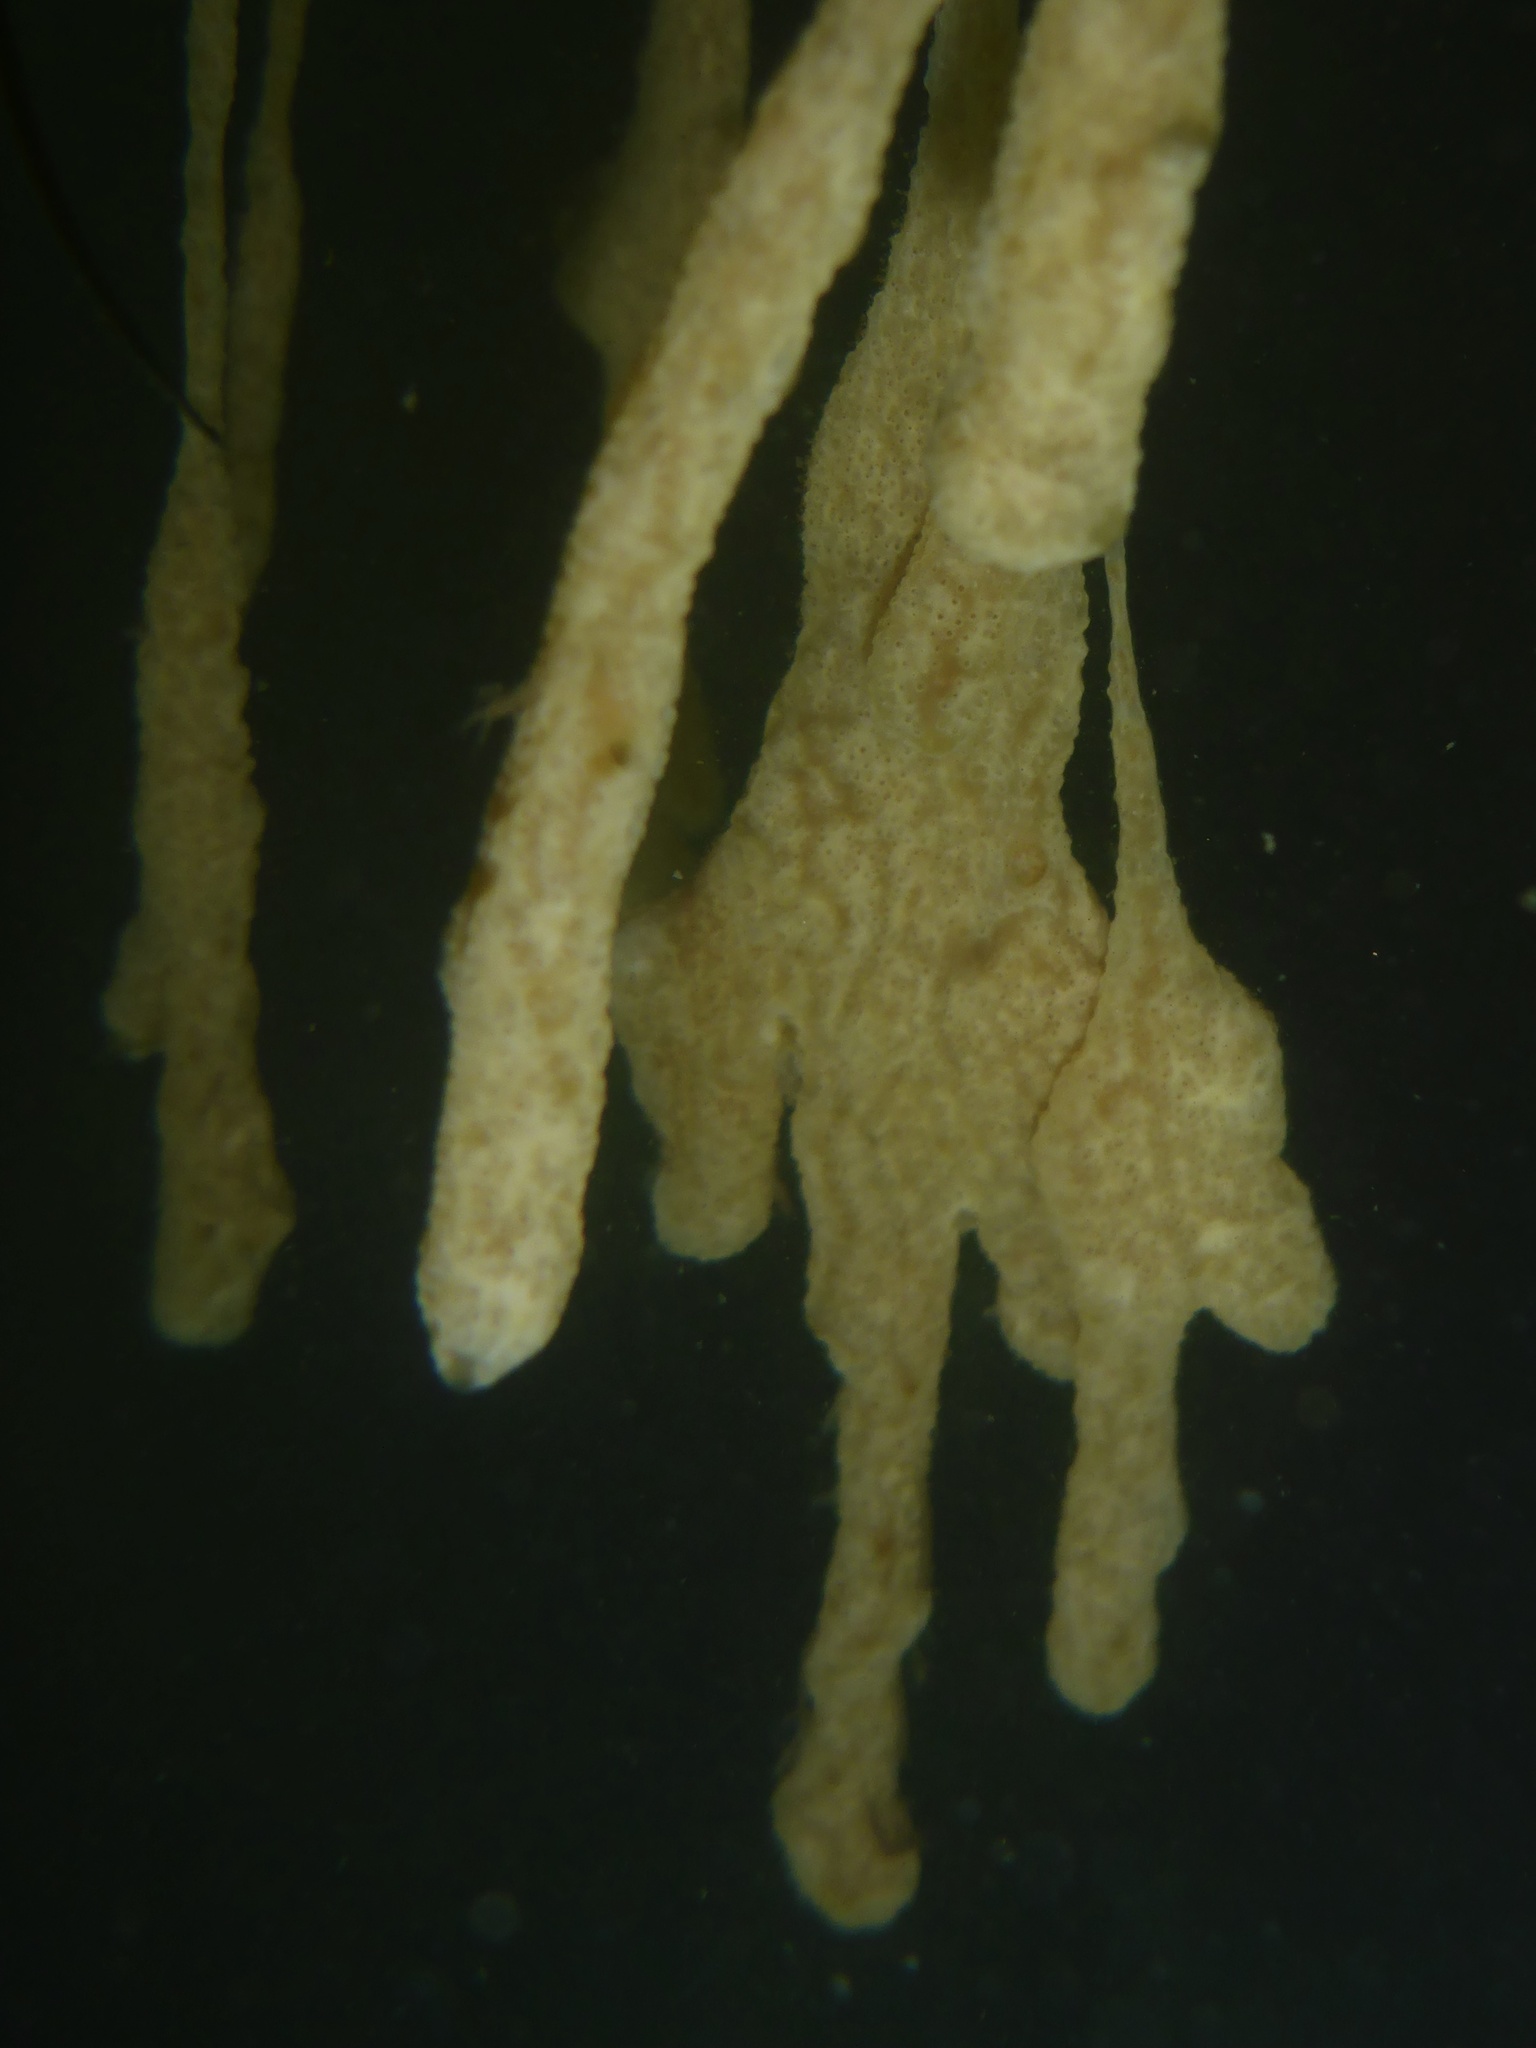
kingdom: Animalia
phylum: Chordata
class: Ascidiacea
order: Aplousobranchia
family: Didemnidae
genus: Didemnum
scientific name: Didemnum vexillum
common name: Compound sea squirt
